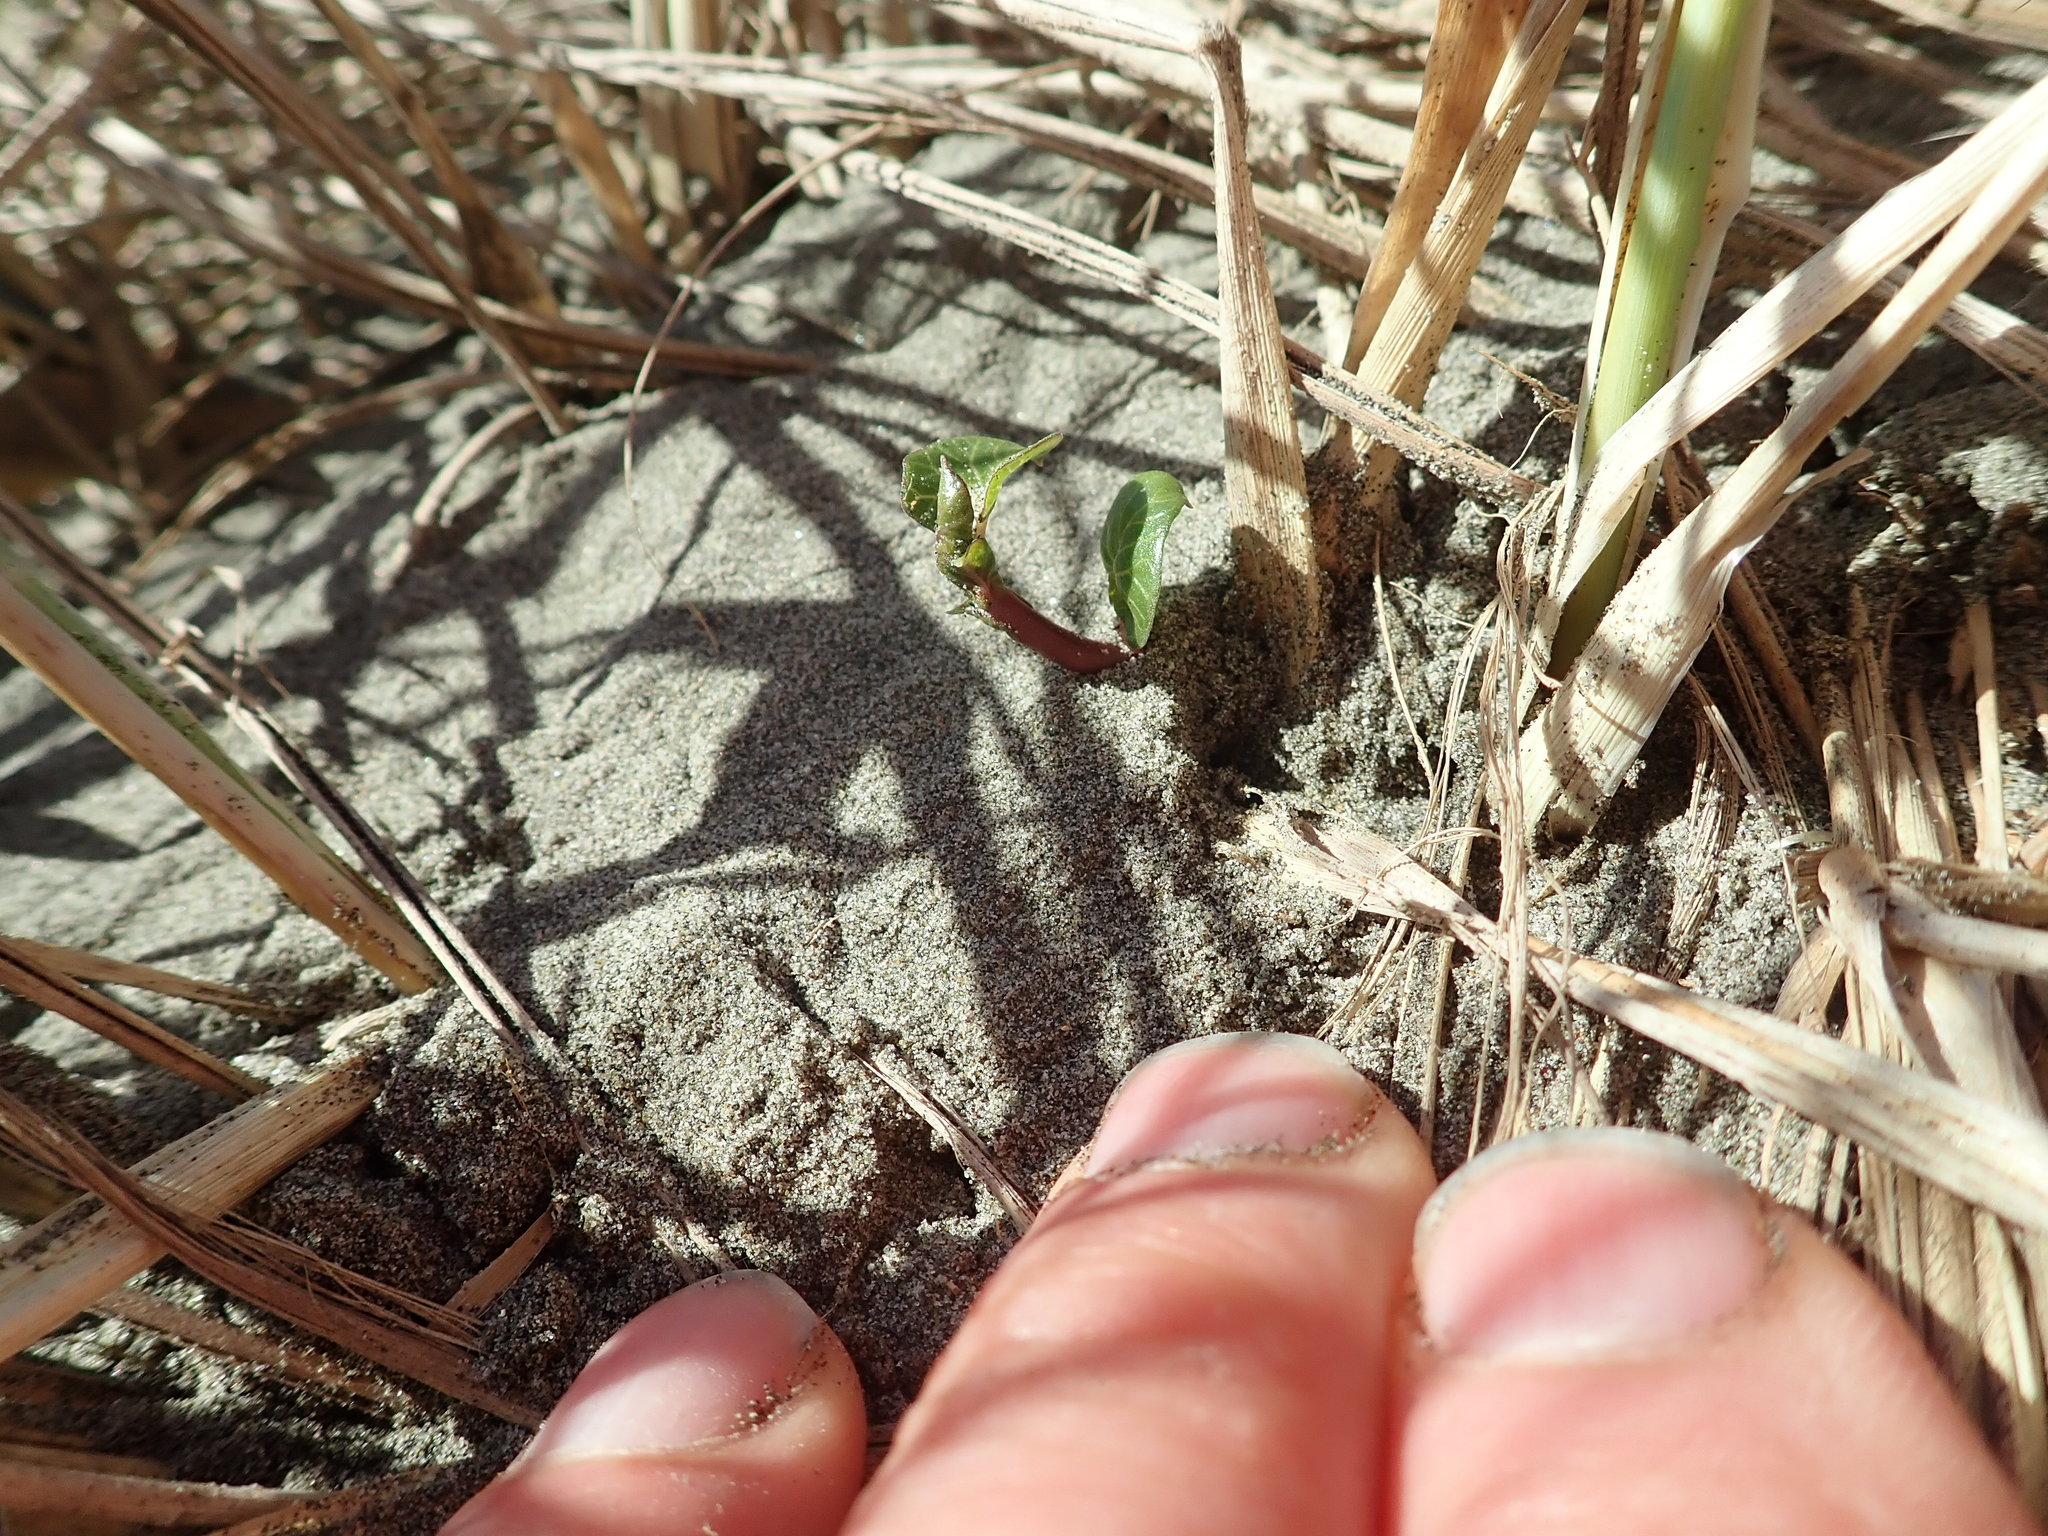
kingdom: Plantae
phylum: Tracheophyta
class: Magnoliopsida
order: Solanales
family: Convolvulaceae
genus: Calystegia
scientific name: Calystegia soldanella
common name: Sea bindweed
